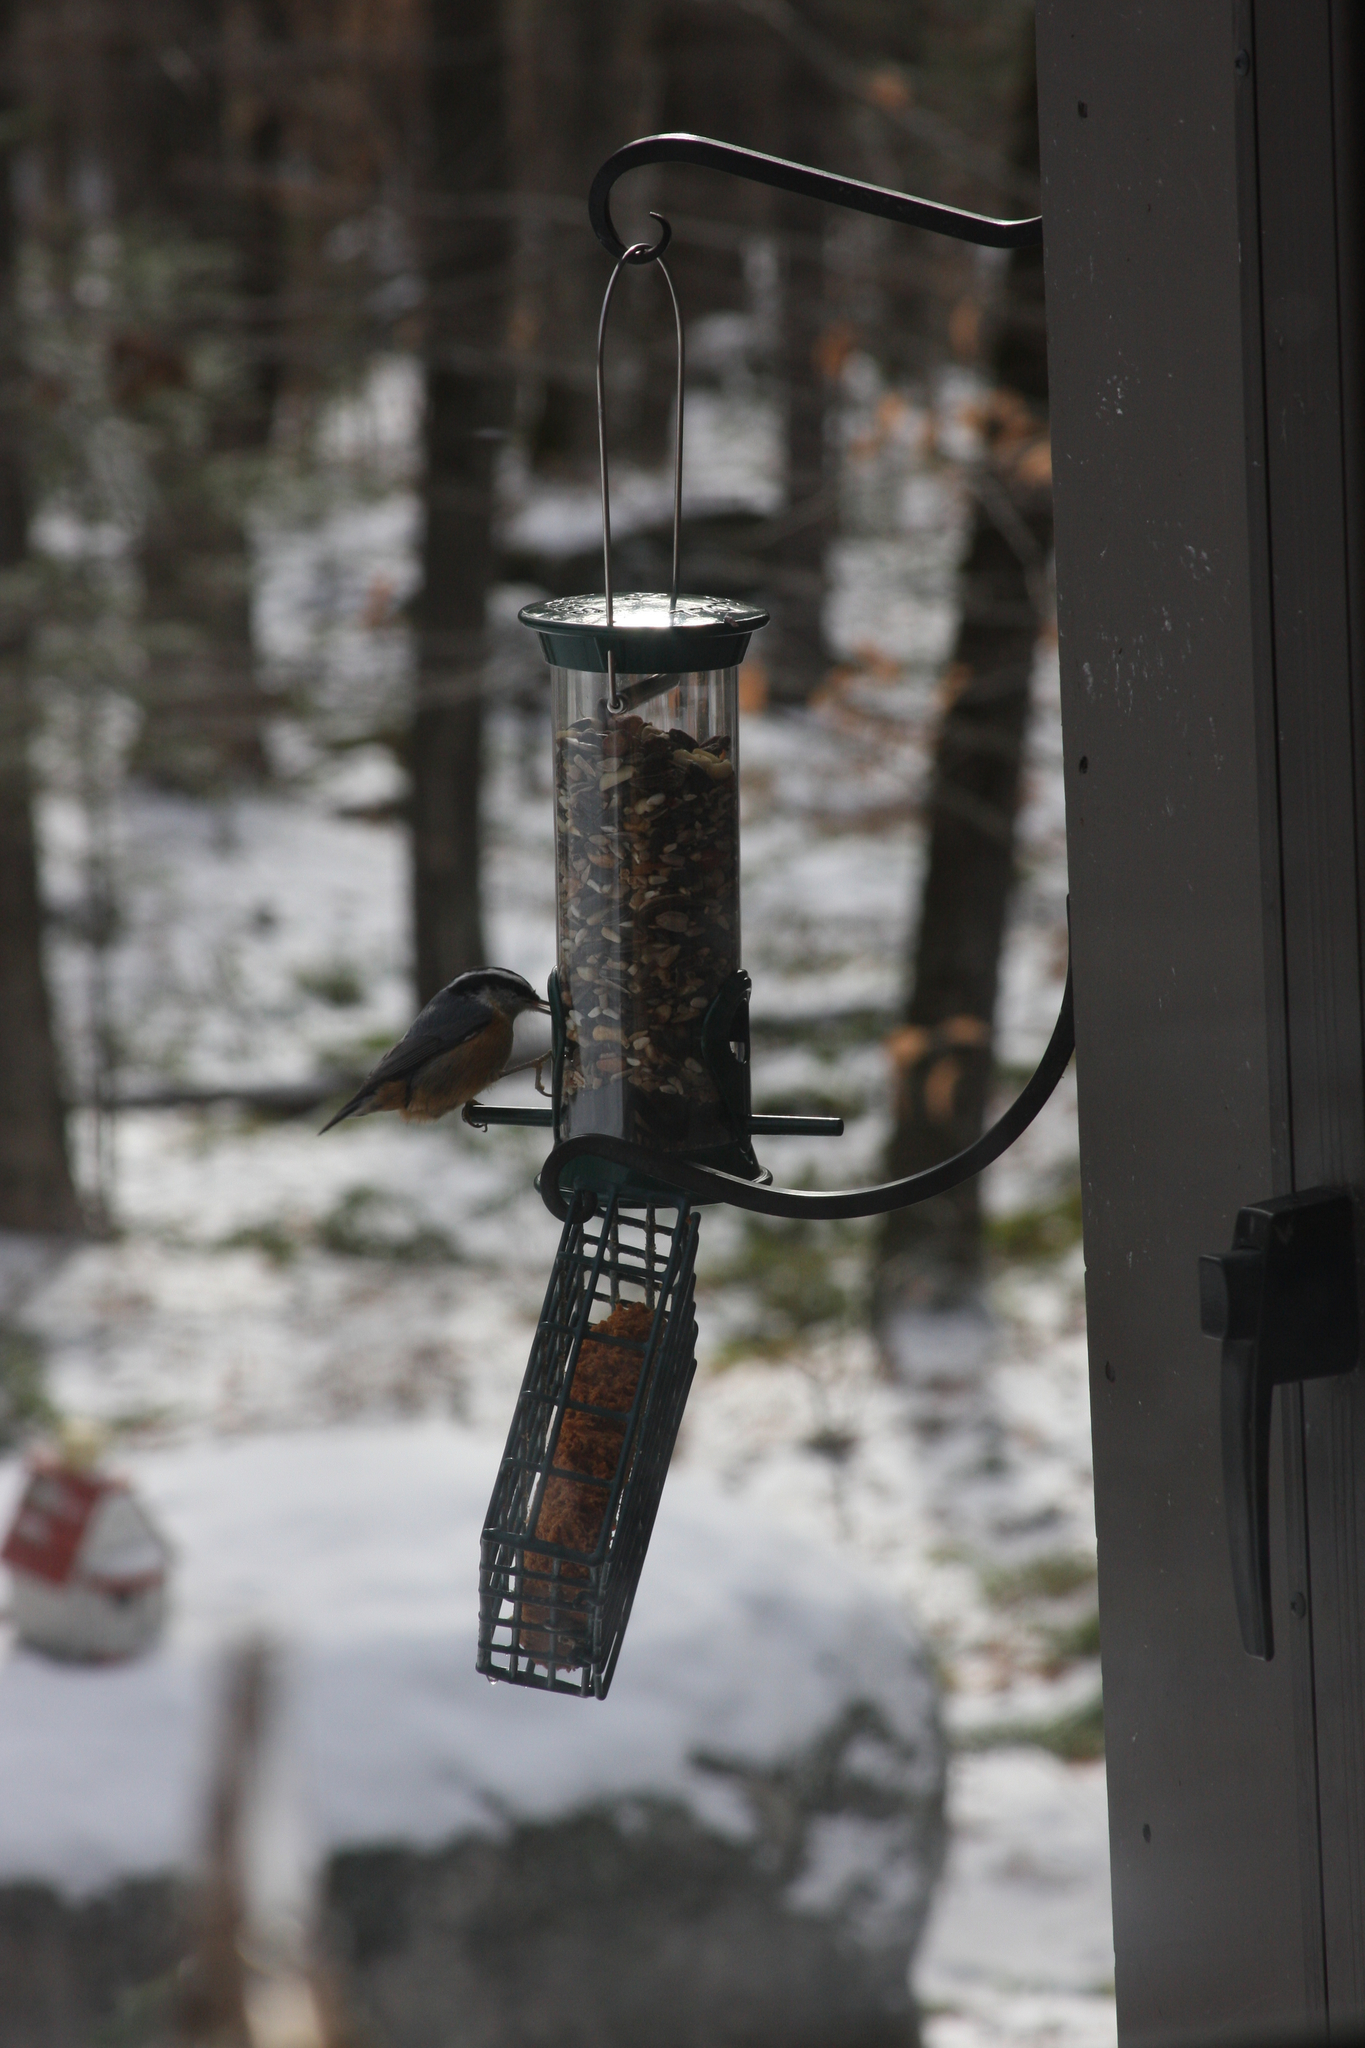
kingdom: Animalia
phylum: Chordata
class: Aves
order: Passeriformes
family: Sittidae
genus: Sitta
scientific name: Sitta canadensis
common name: Red-breasted nuthatch
